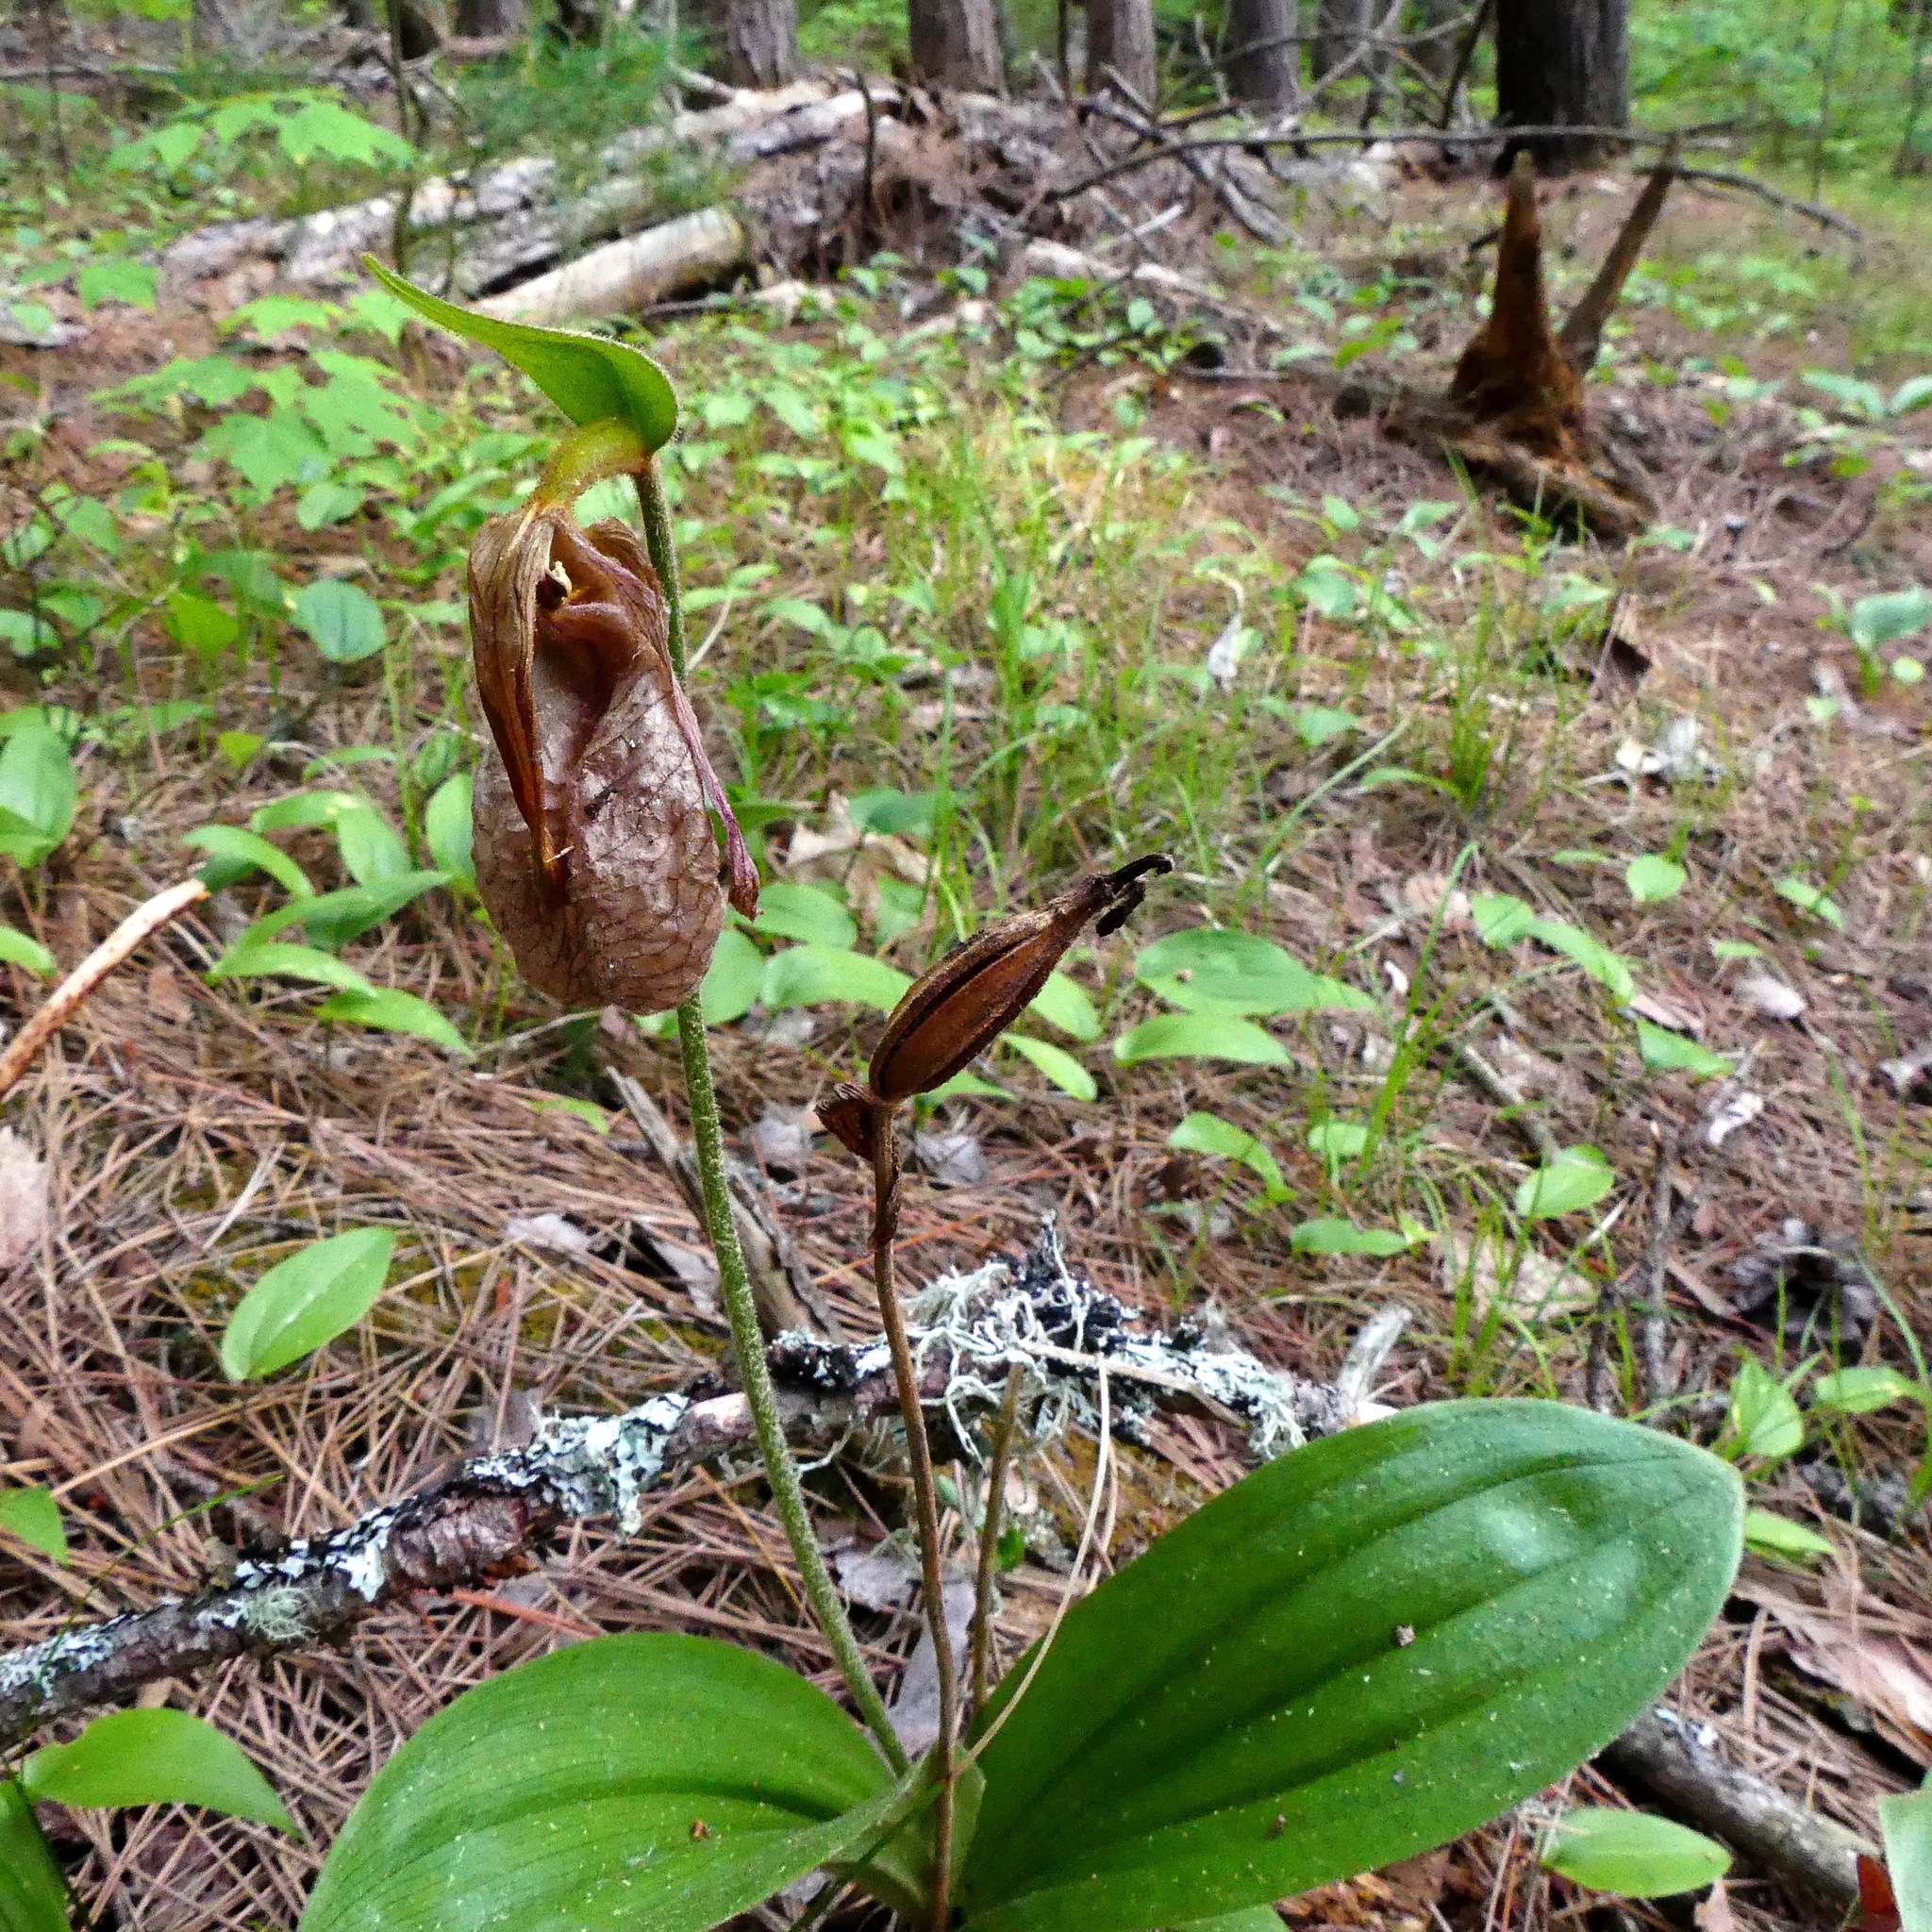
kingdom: Plantae
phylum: Tracheophyta
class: Liliopsida
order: Asparagales
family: Orchidaceae
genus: Cypripedium
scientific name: Cypripedium acaule
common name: Pink lady's-slipper
